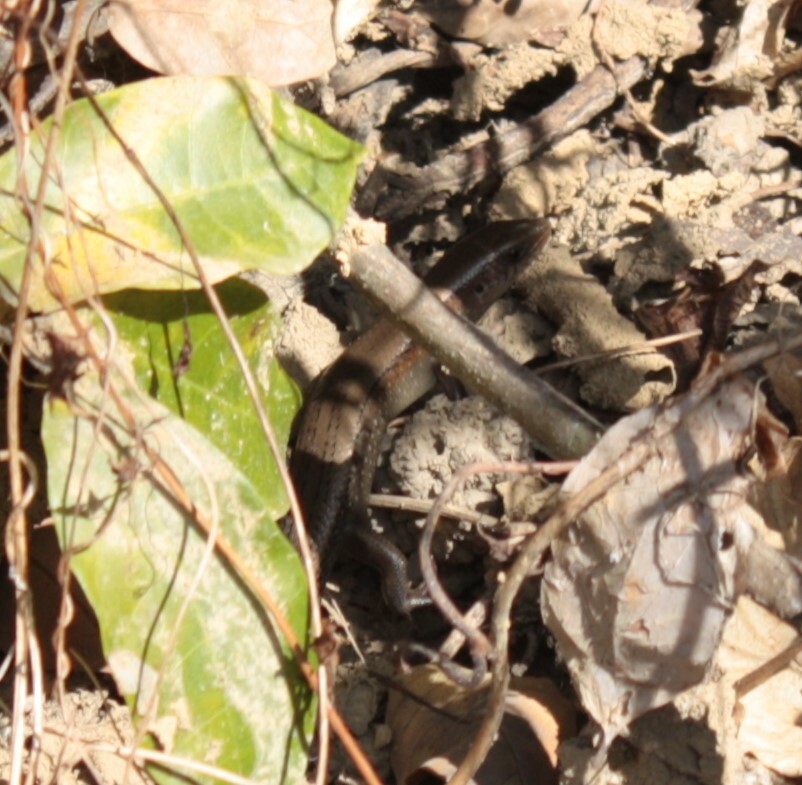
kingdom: Animalia
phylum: Chordata
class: Squamata
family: Scincidae
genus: Eutropis
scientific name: Eutropis multifasciata
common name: Common mabuya
